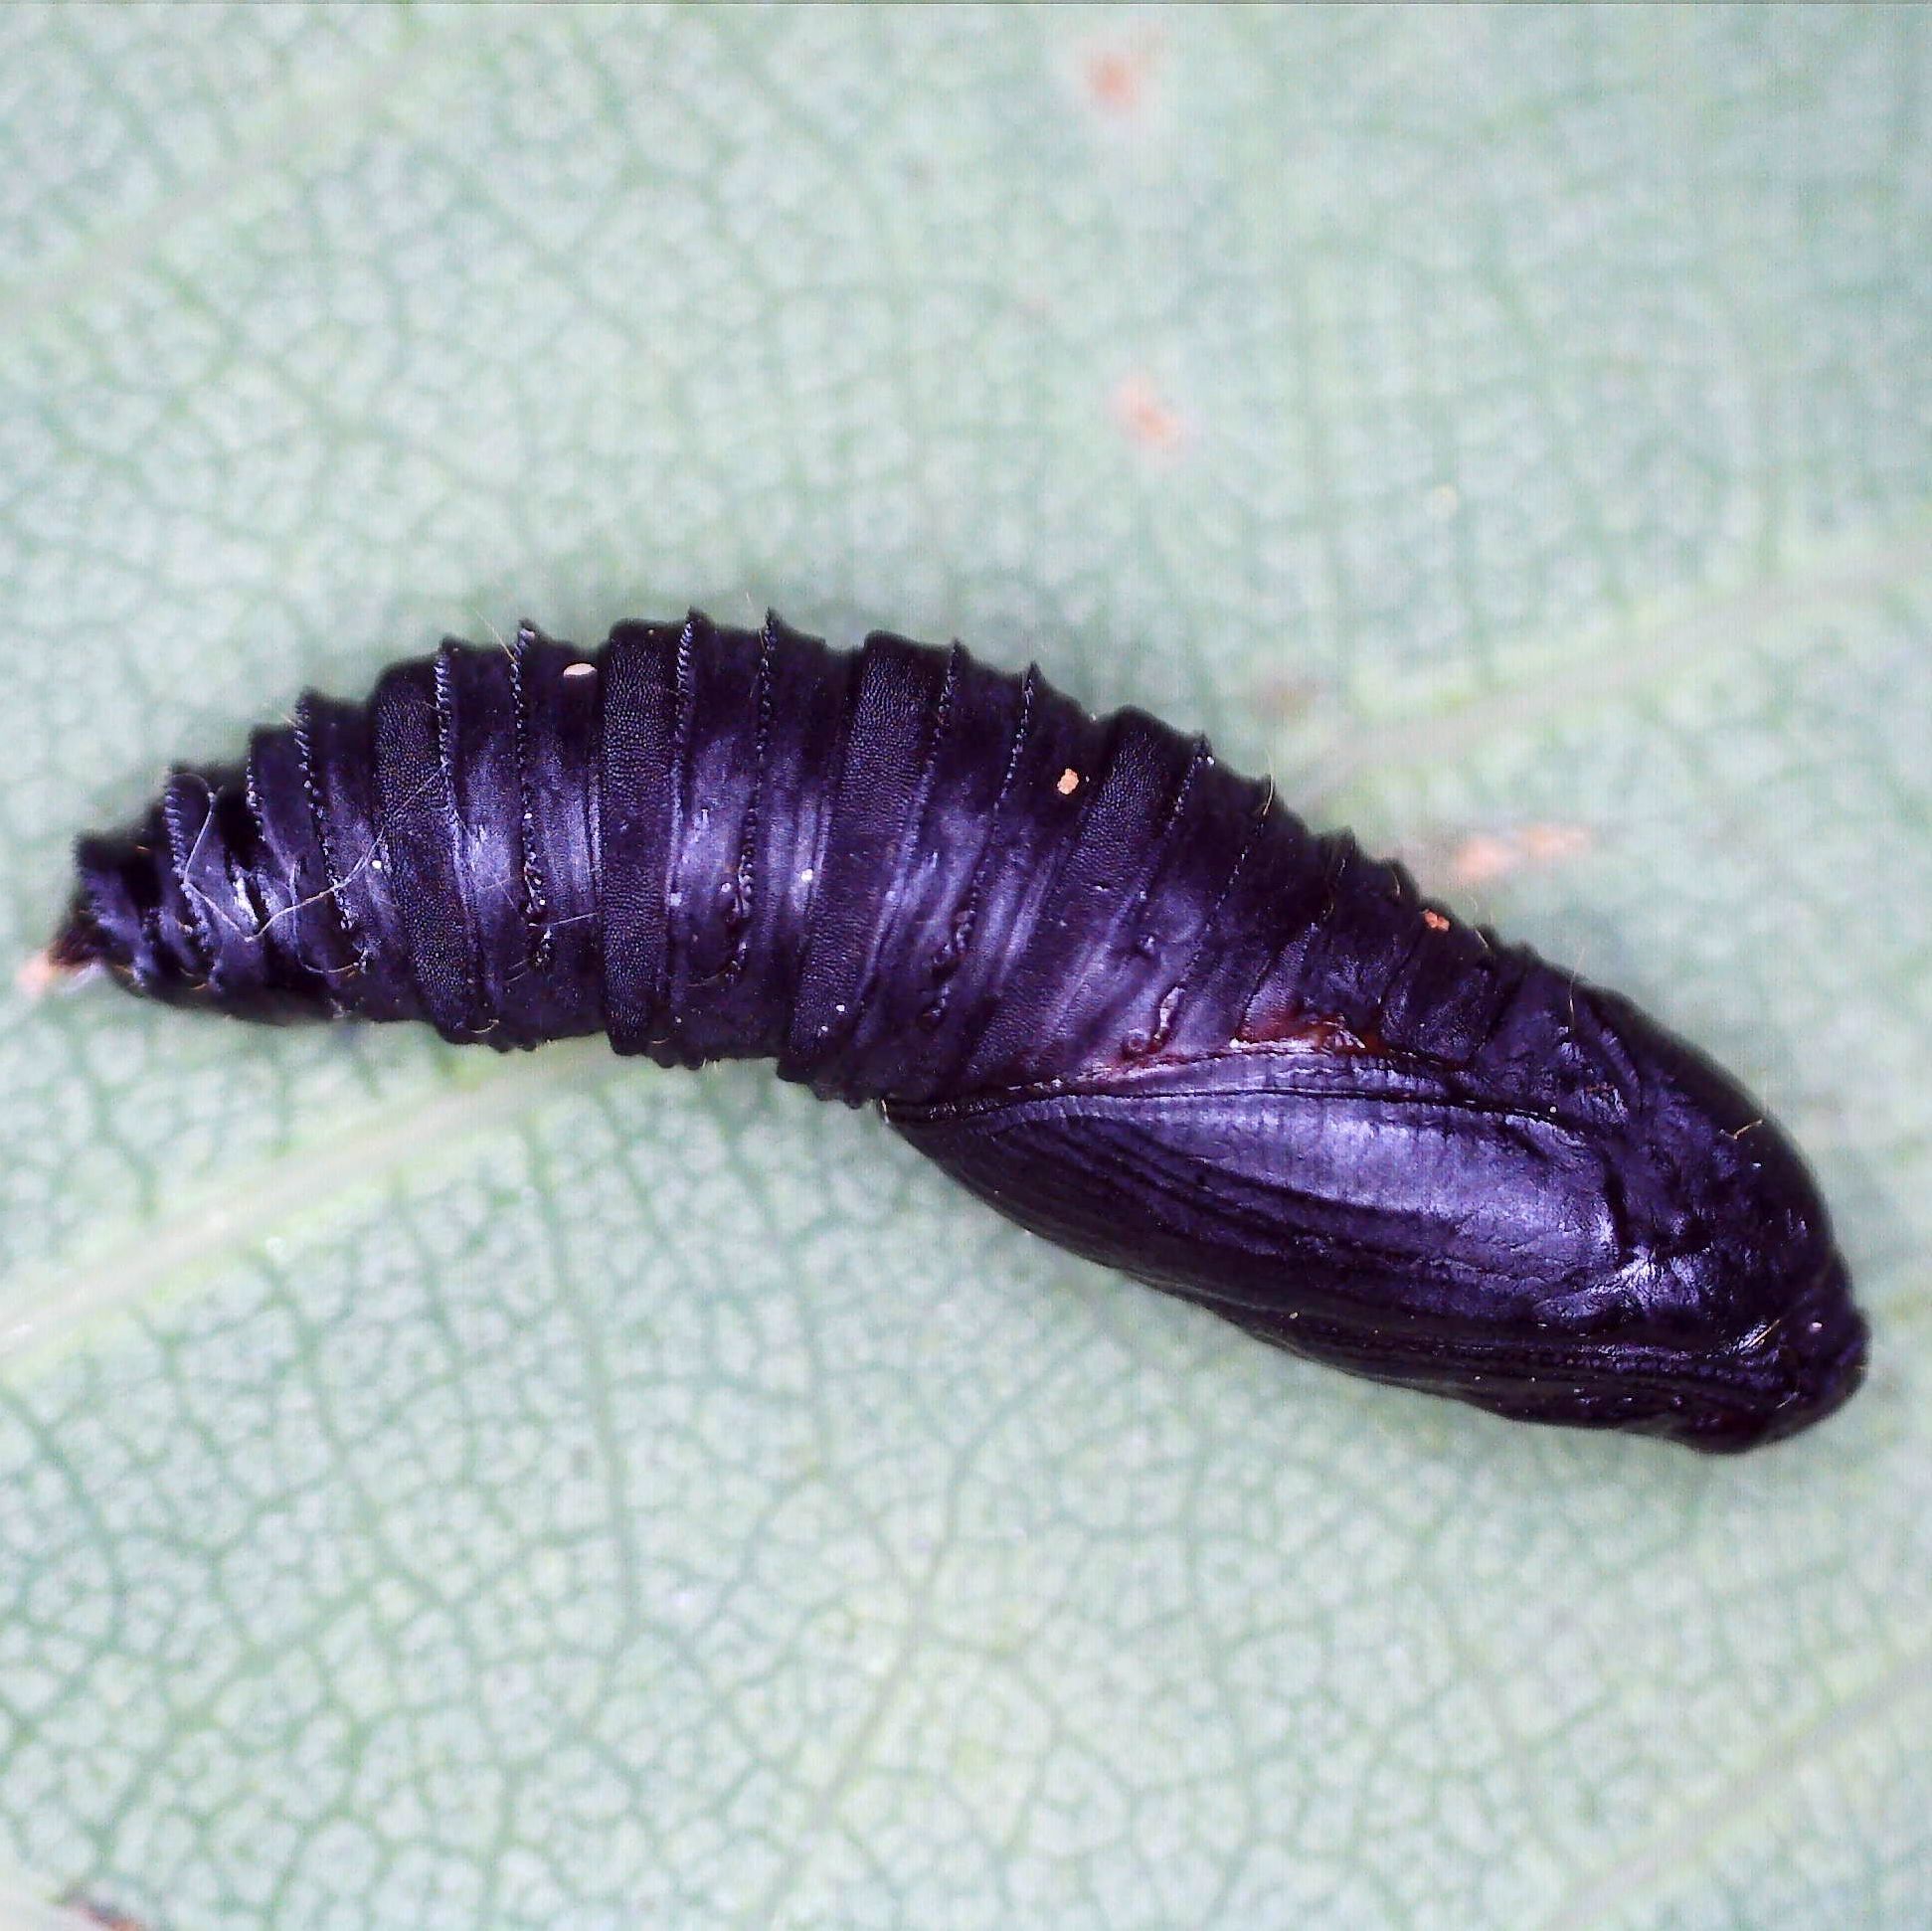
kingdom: Animalia
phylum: Arthropoda
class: Insecta
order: Lepidoptera
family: Tortricidae
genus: Tortrix
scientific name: Tortrix viridana
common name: Green oak tortrix
